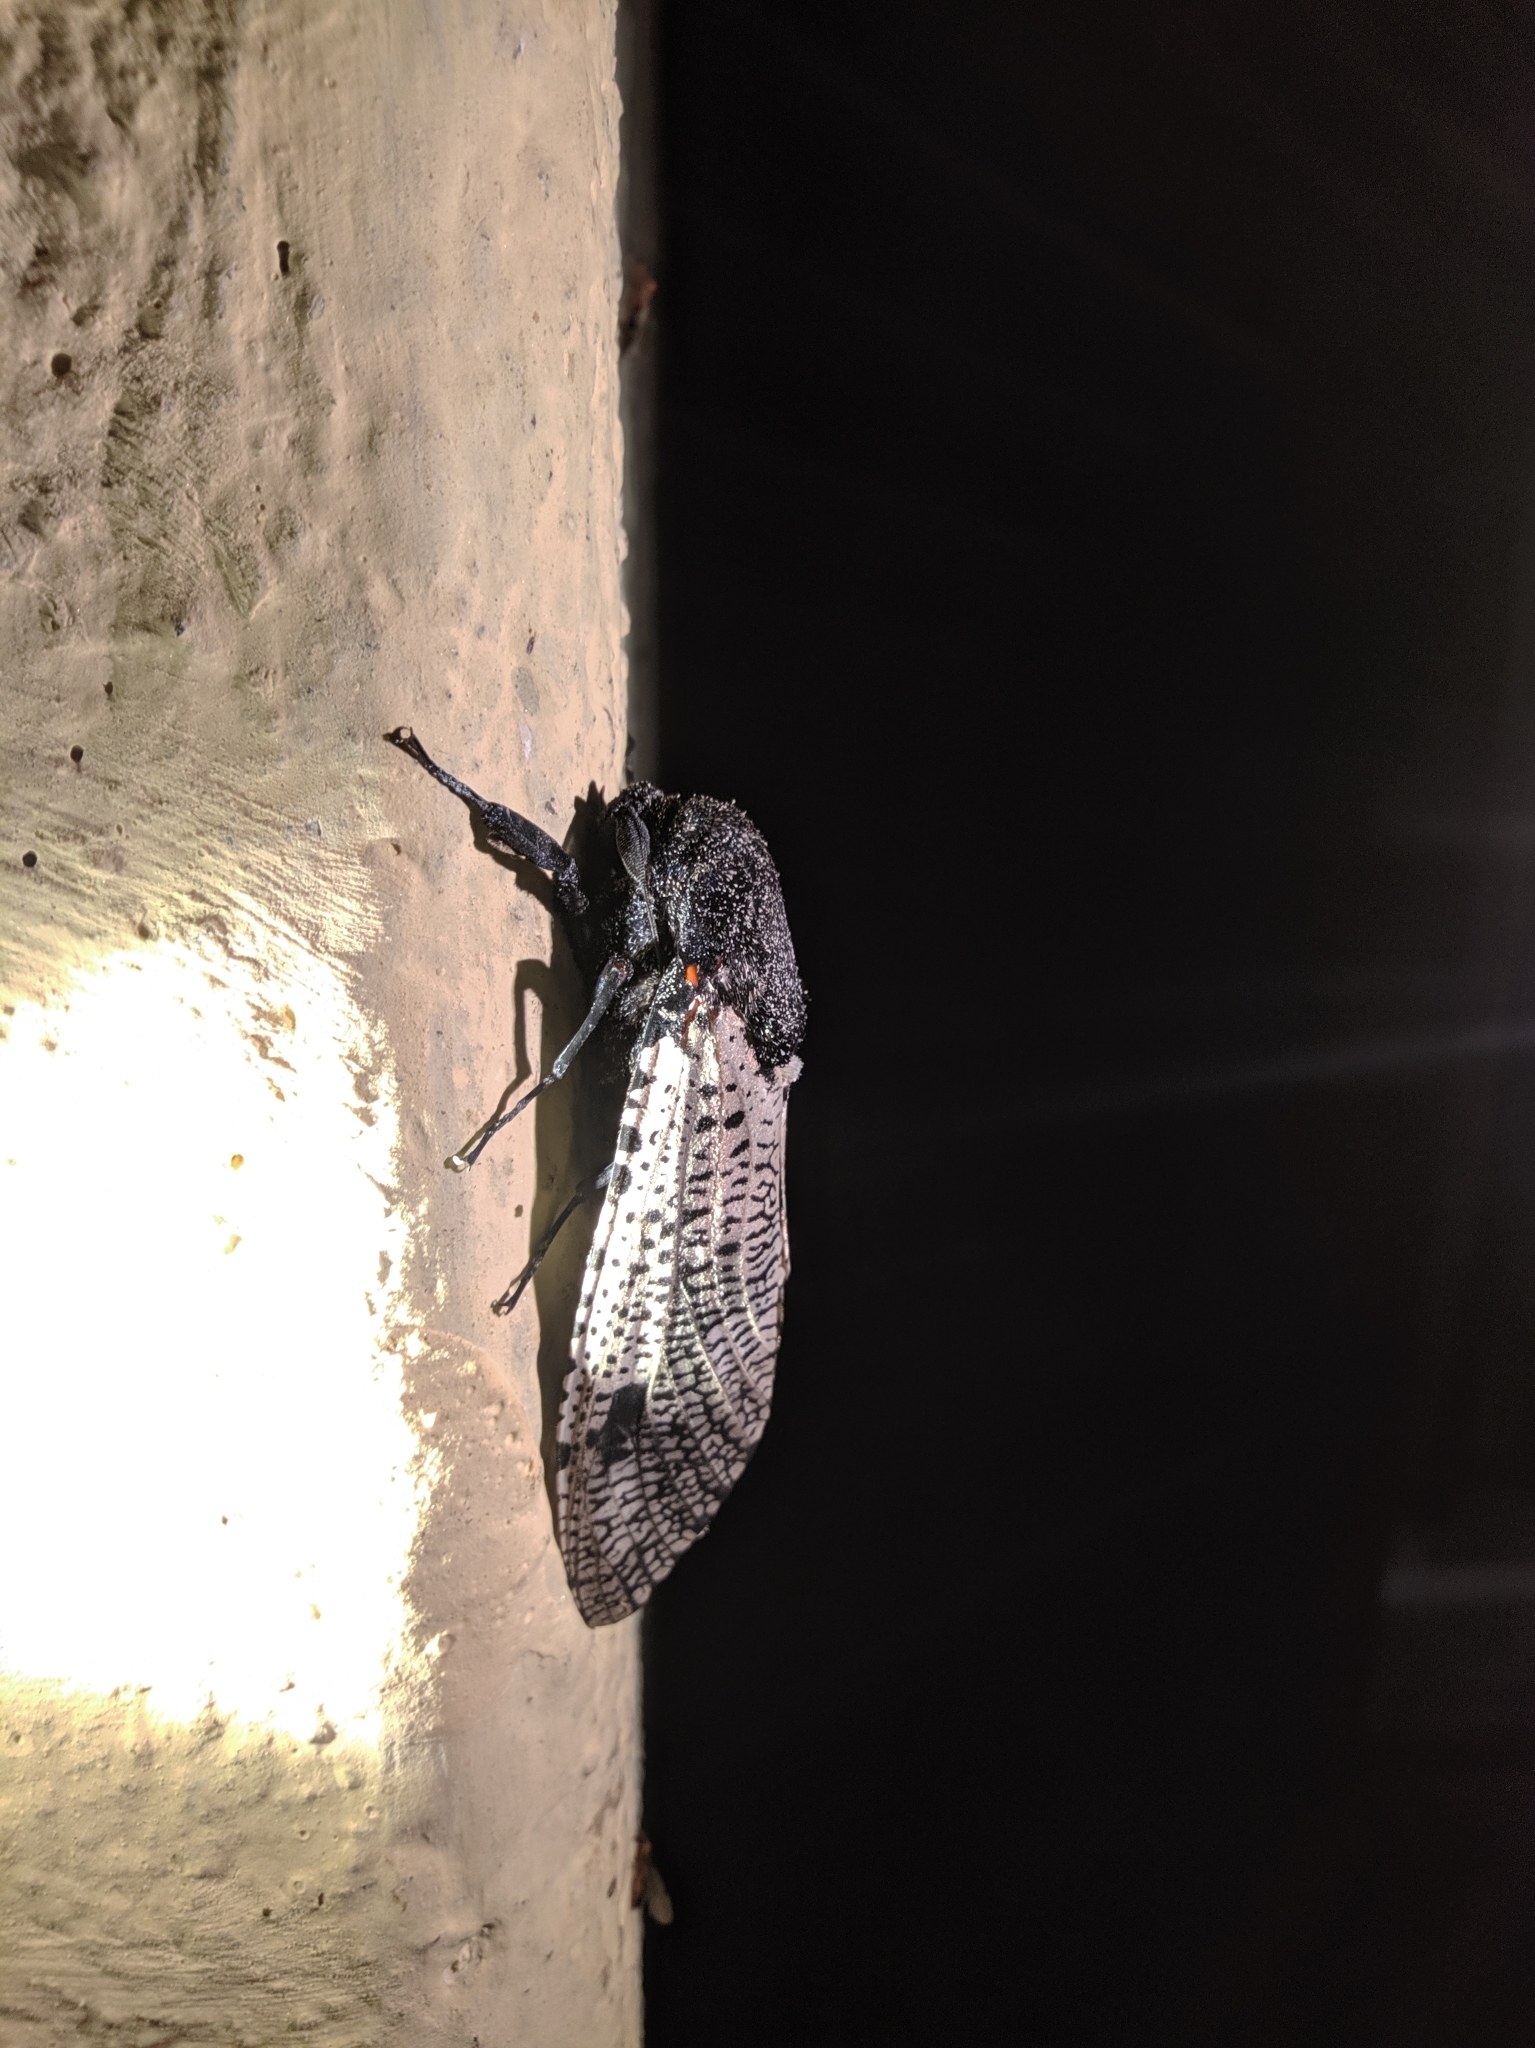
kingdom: Animalia
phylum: Arthropoda
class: Insecta
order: Lepidoptera
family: Cossidae
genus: Xyleutes
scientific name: Xyleutes strix
